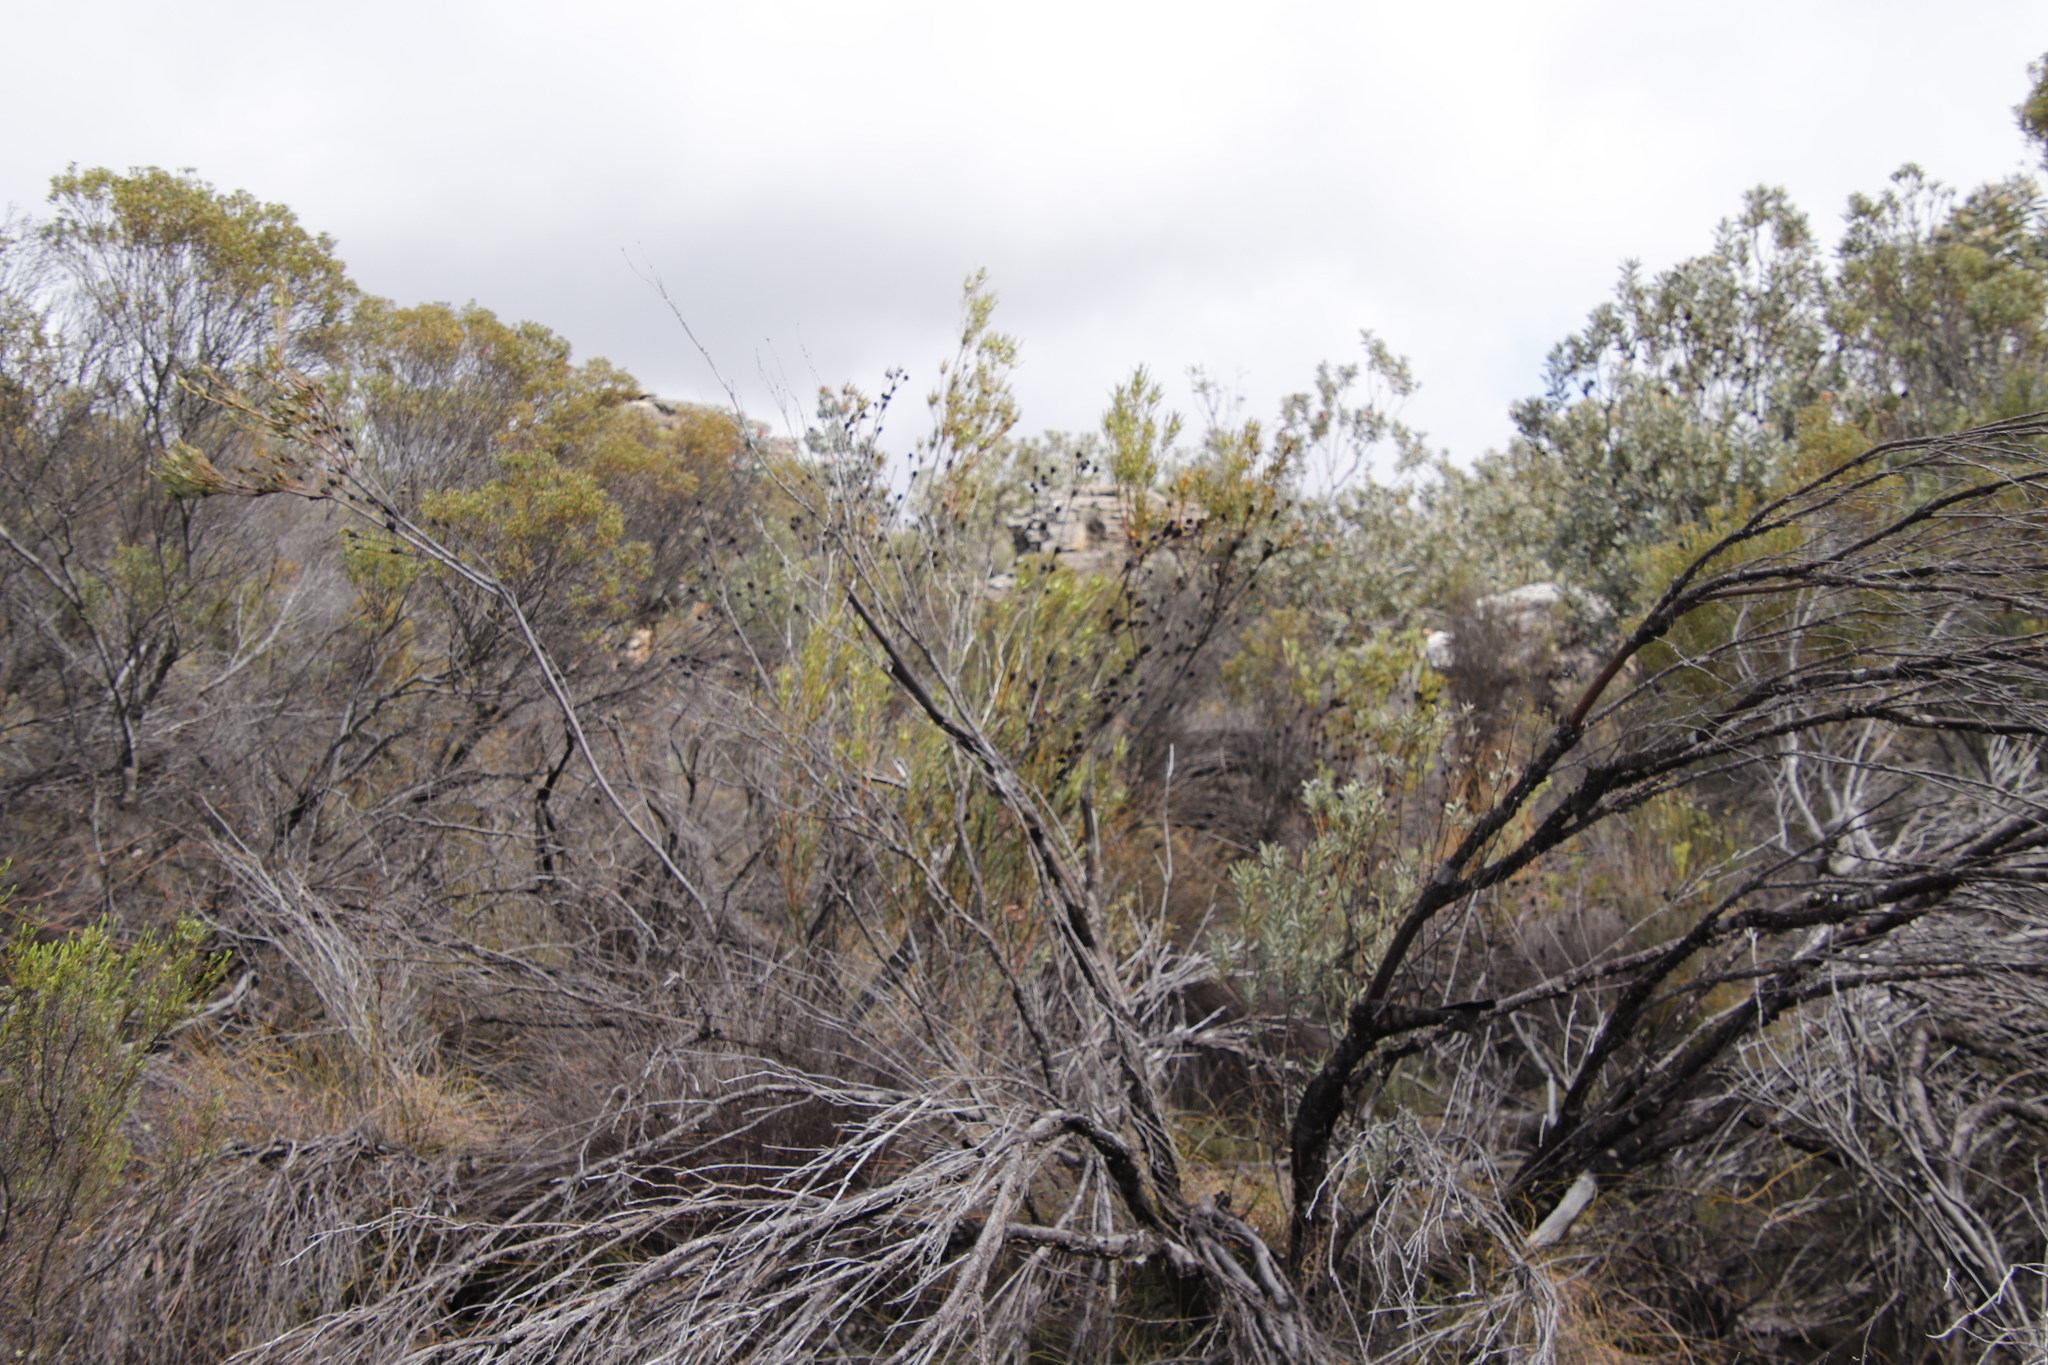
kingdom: Plantae
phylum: Tracheophyta
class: Magnoliopsida
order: Proteales
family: Proteaceae
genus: Leucadendron
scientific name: Leucadendron pubescens
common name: Grey conebush
